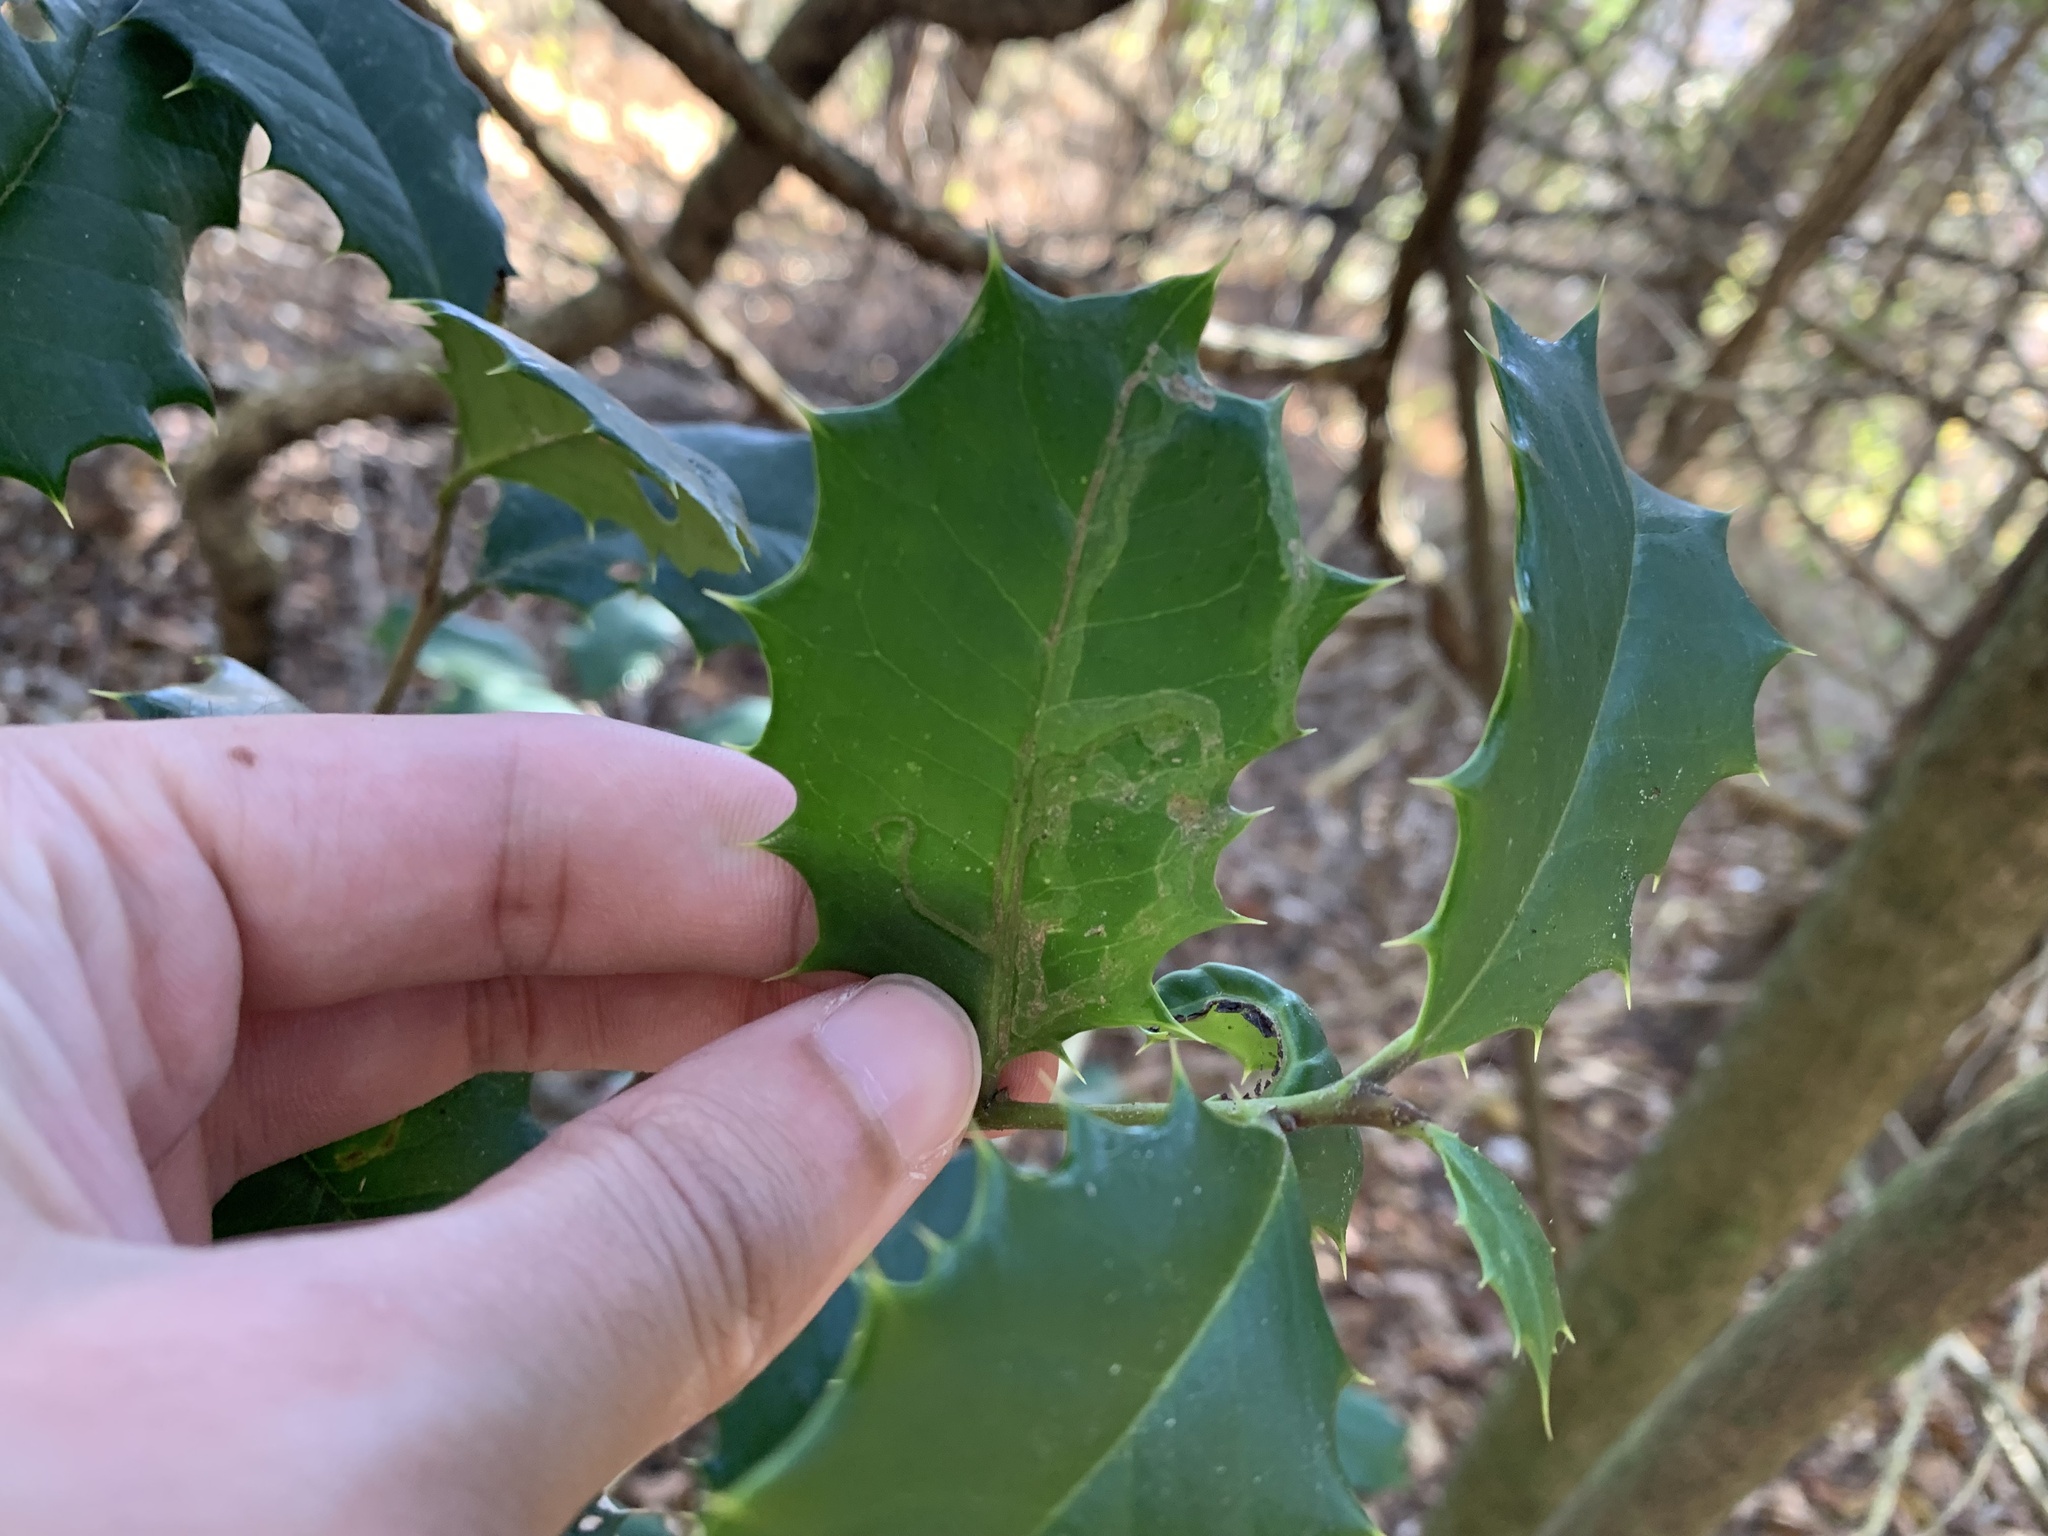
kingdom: Animalia
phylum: Arthropoda
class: Insecta
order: Diptera
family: Agromyzidae
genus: Phytomyza
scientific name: Phytomyza opacae
